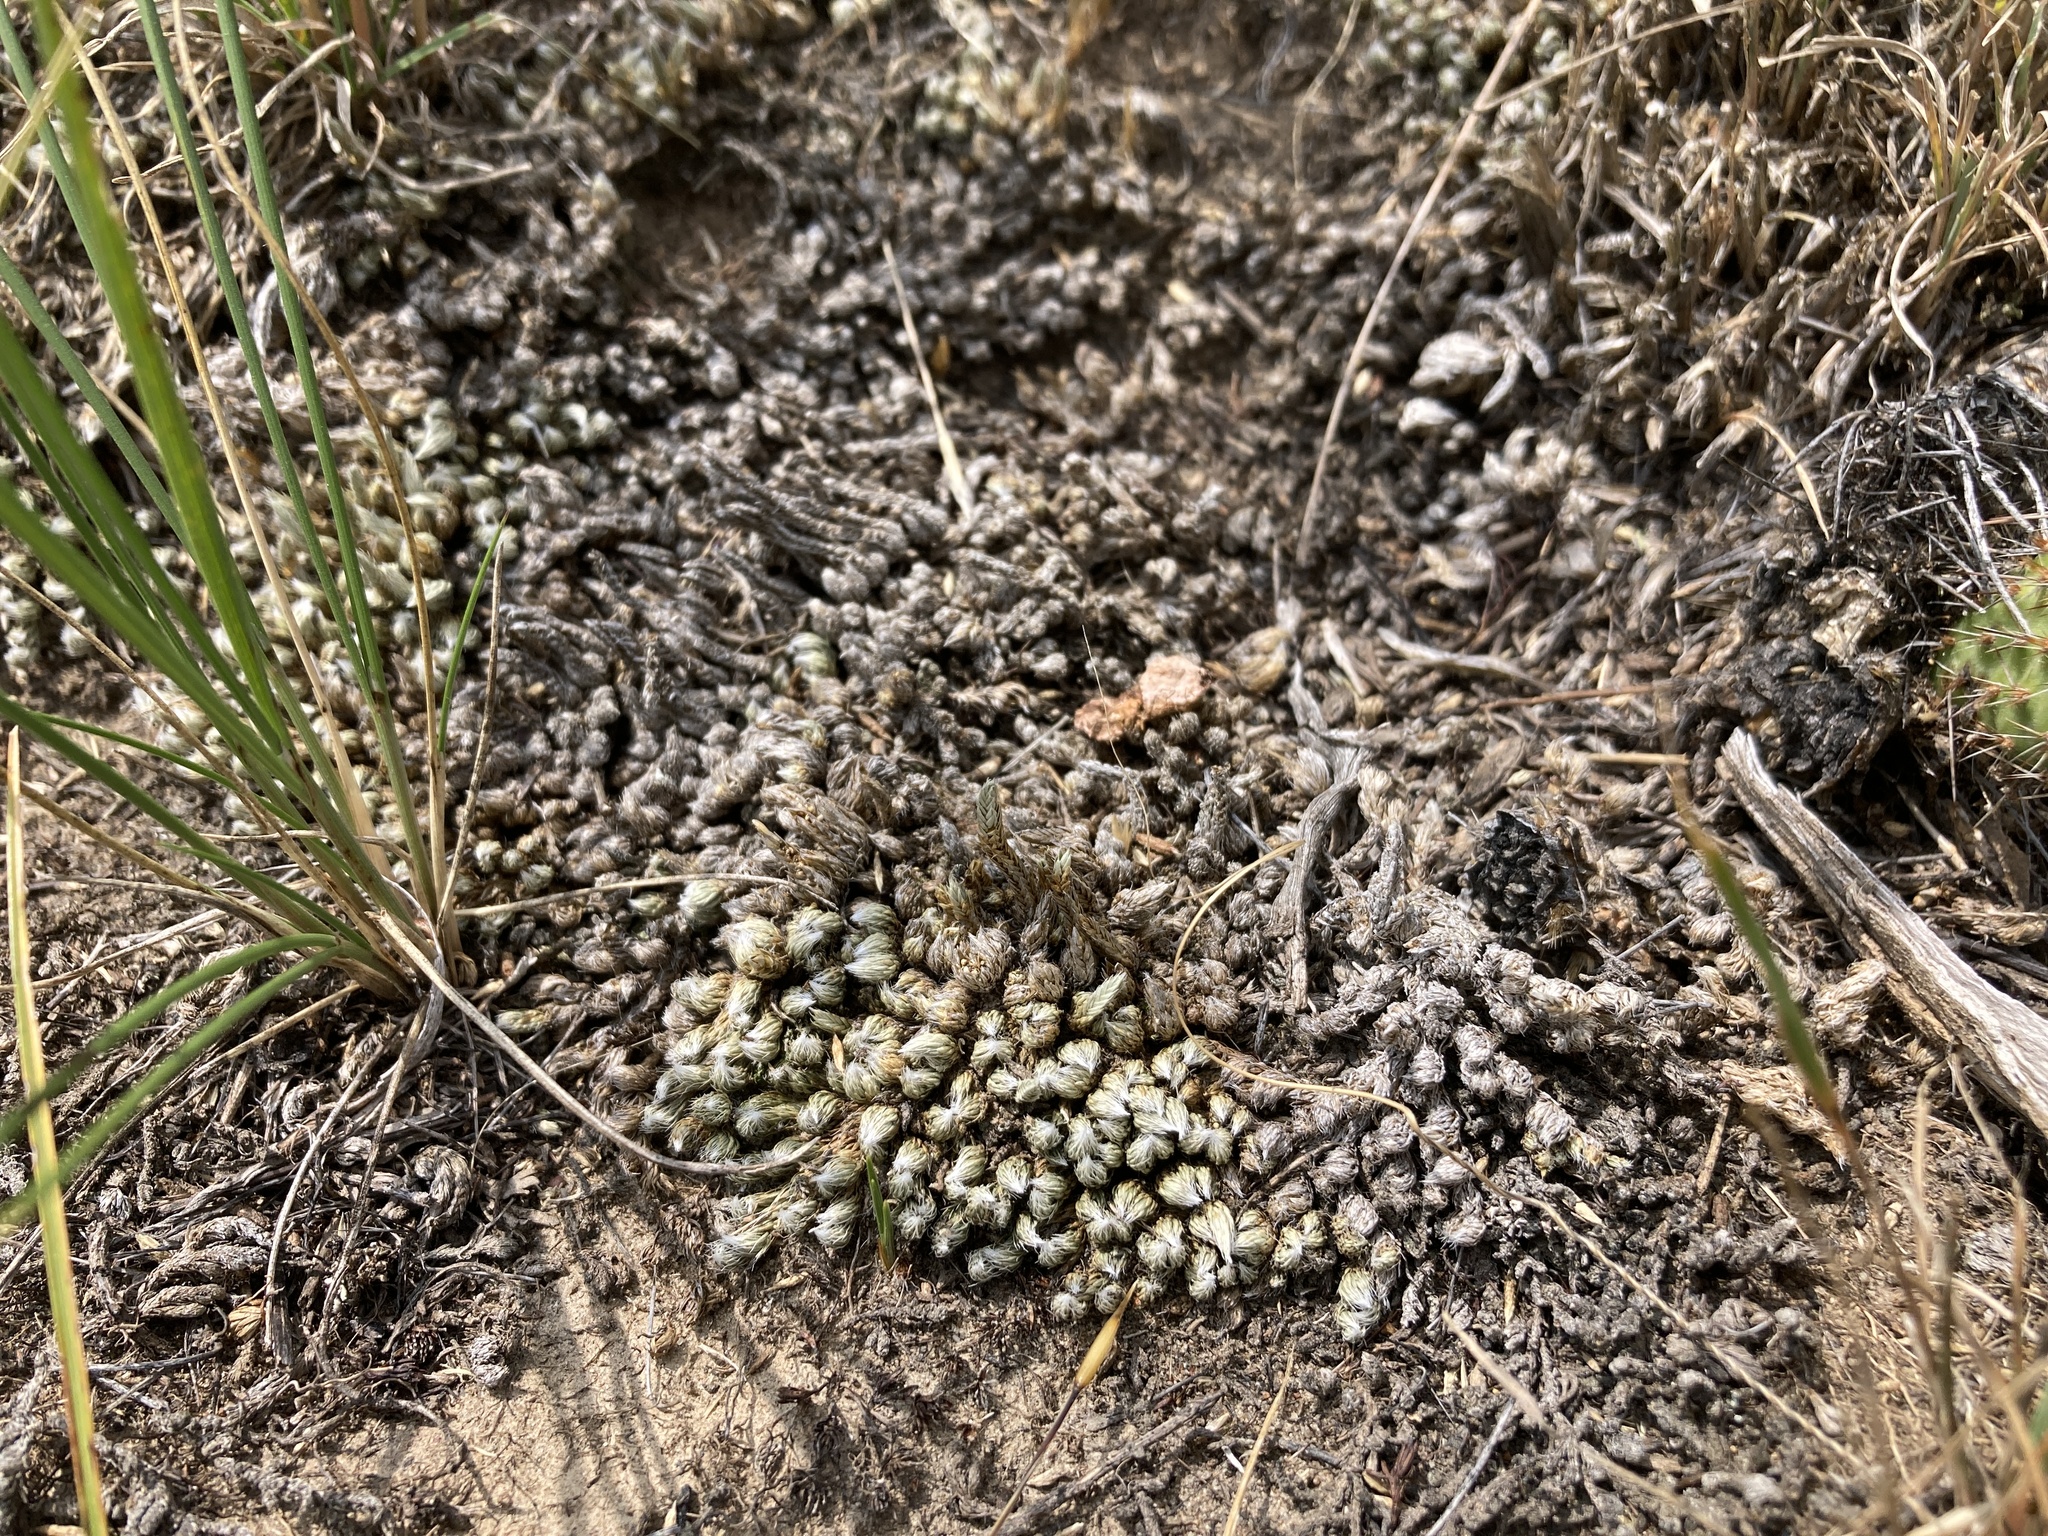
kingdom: Plantae
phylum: Tracheophyta
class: Lycopodiopsida
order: Selaginellales
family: Selaginellaceae
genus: Selaginella
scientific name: Selaginella densa
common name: Mountain spike-moss
